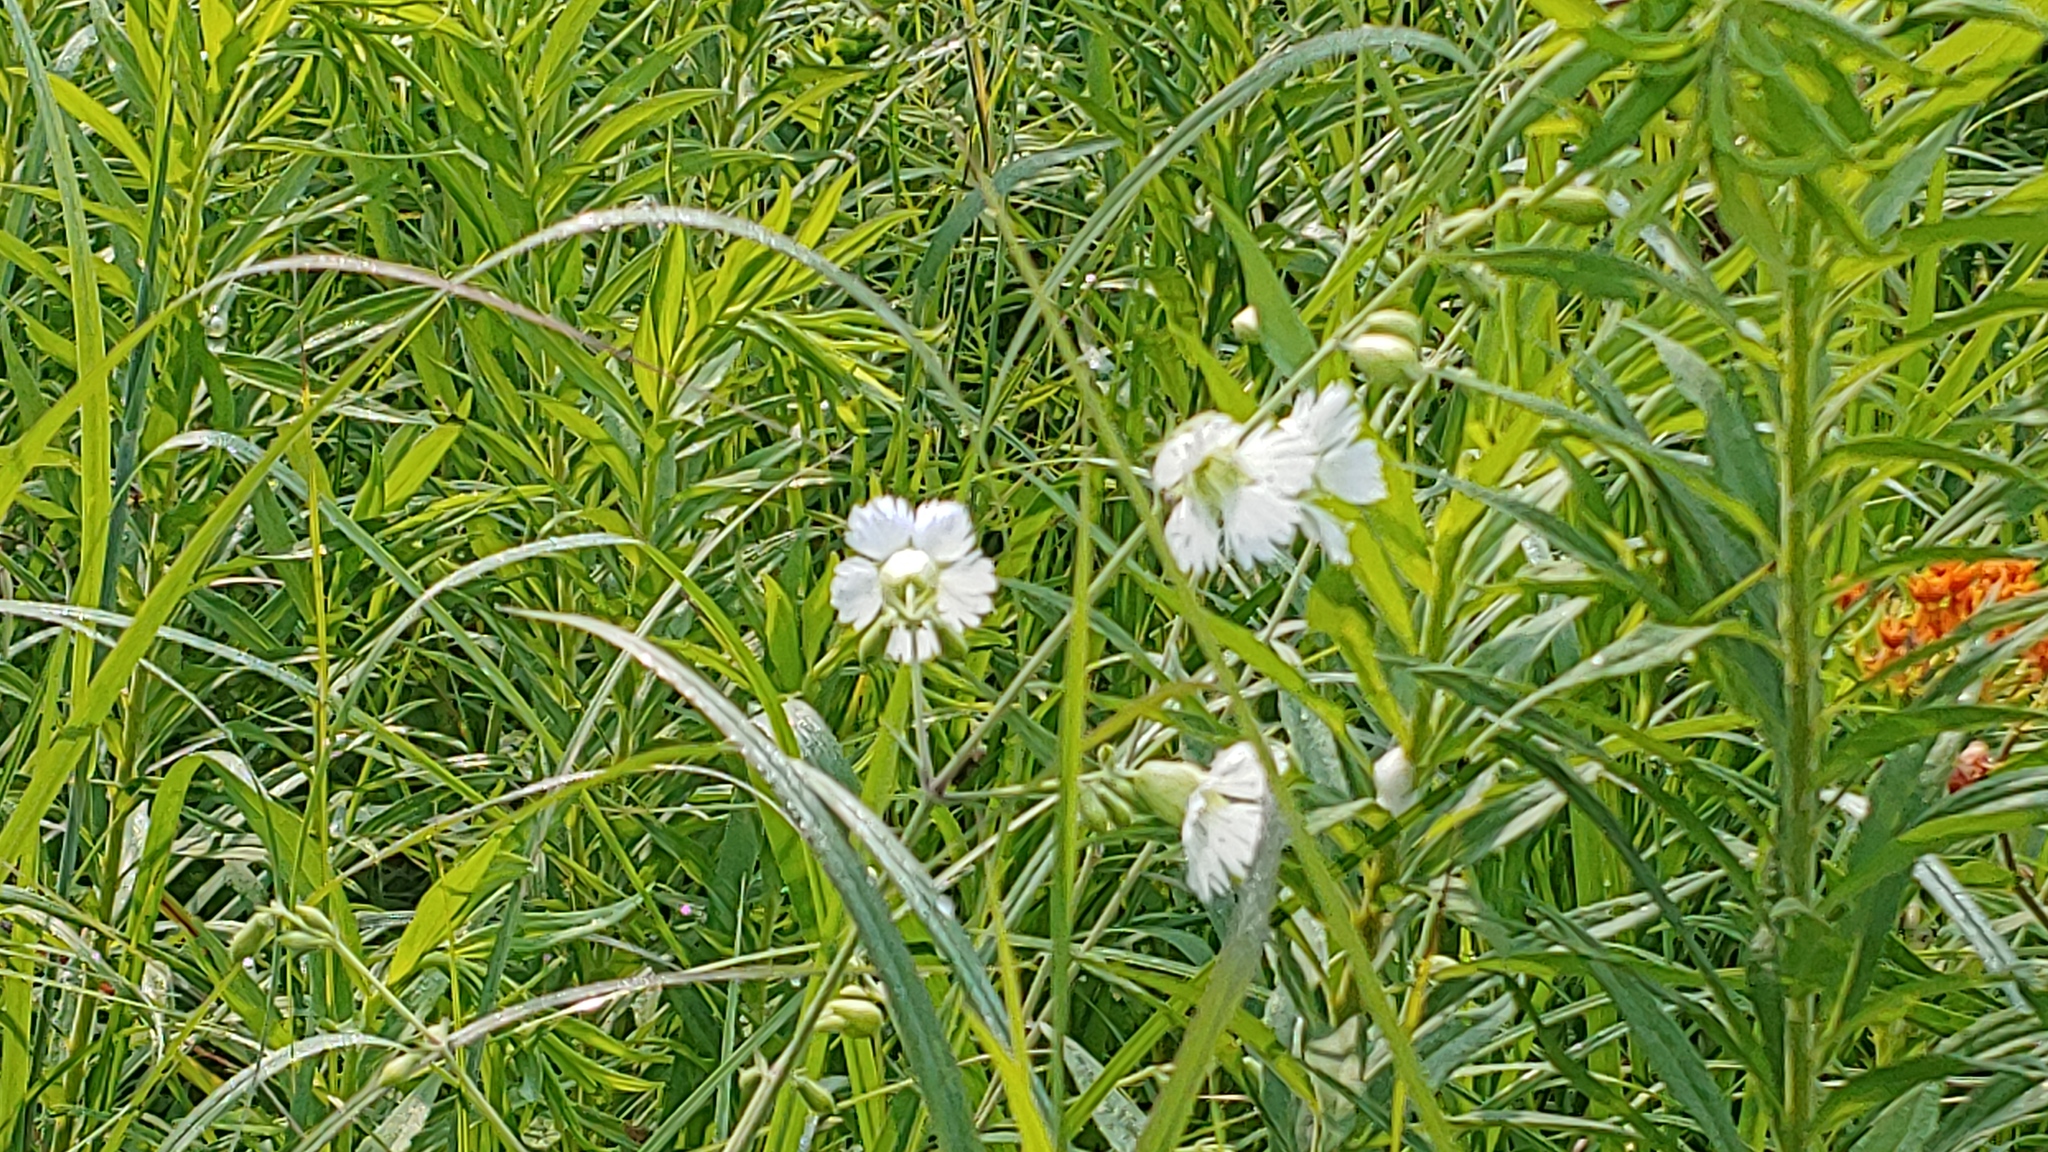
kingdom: Plantae
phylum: Tracheophyta
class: Magnoliopsida
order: Caryophyllales
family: Caryophyllaceae
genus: Silene
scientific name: Silene stellata
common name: Starry campion
